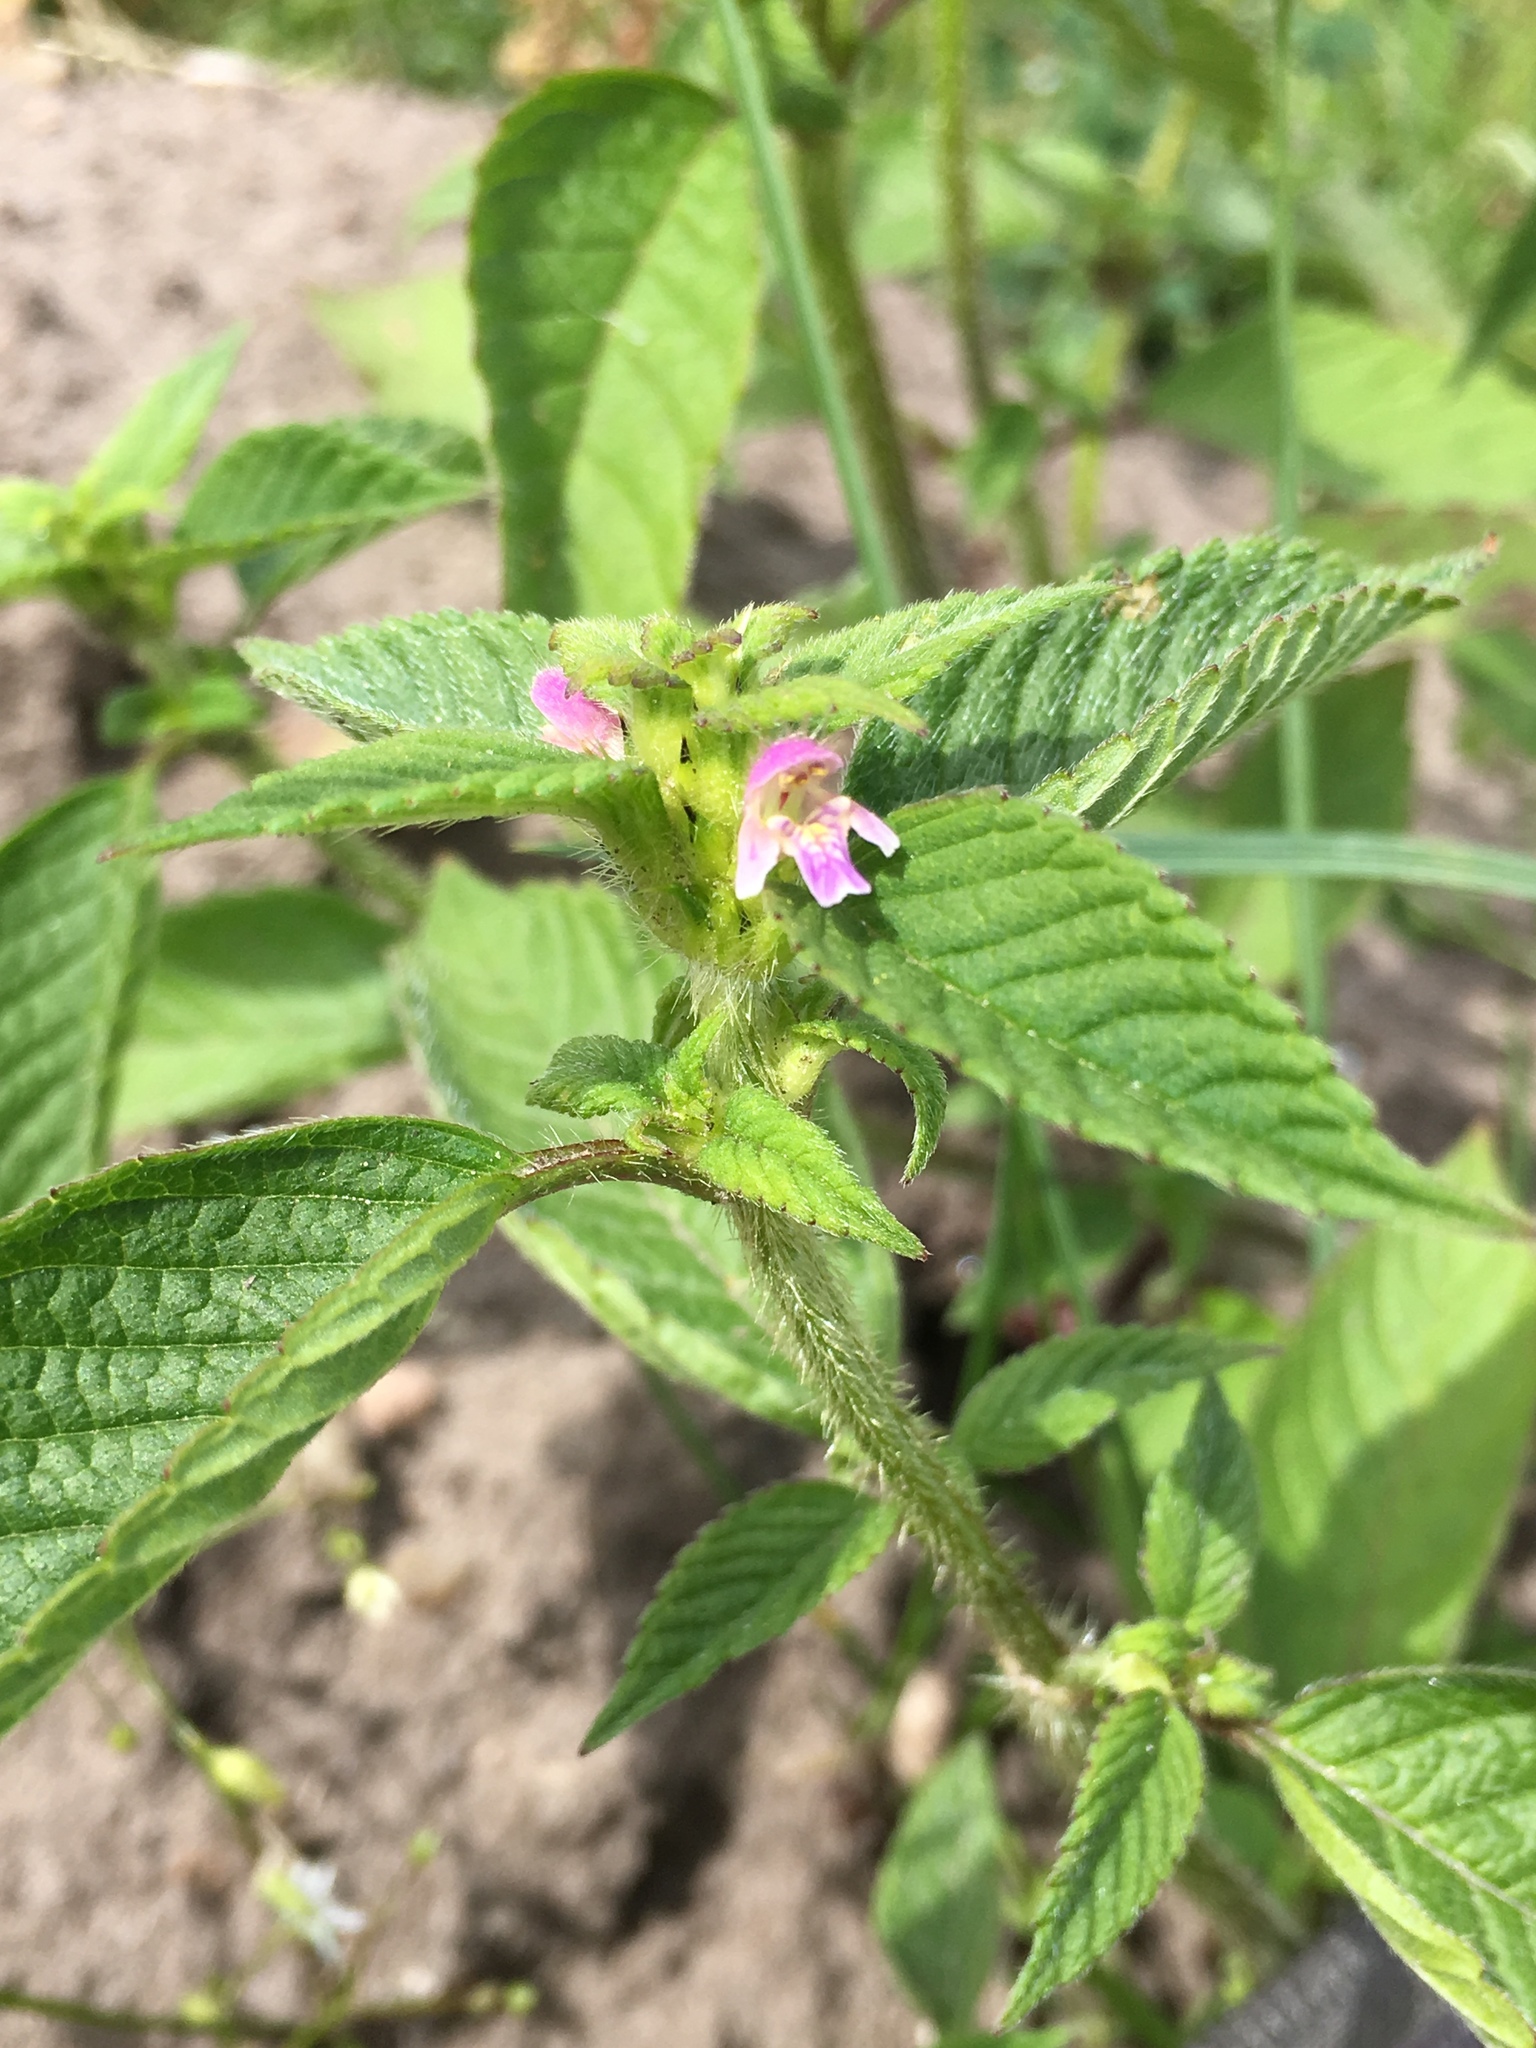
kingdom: Plantae
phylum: Tracheophyta
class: Magnoliopsida
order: Lamiales
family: Lamiaceae
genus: Galeopsis
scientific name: Galeopsis bifida
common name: Bifid hemp-nettle
